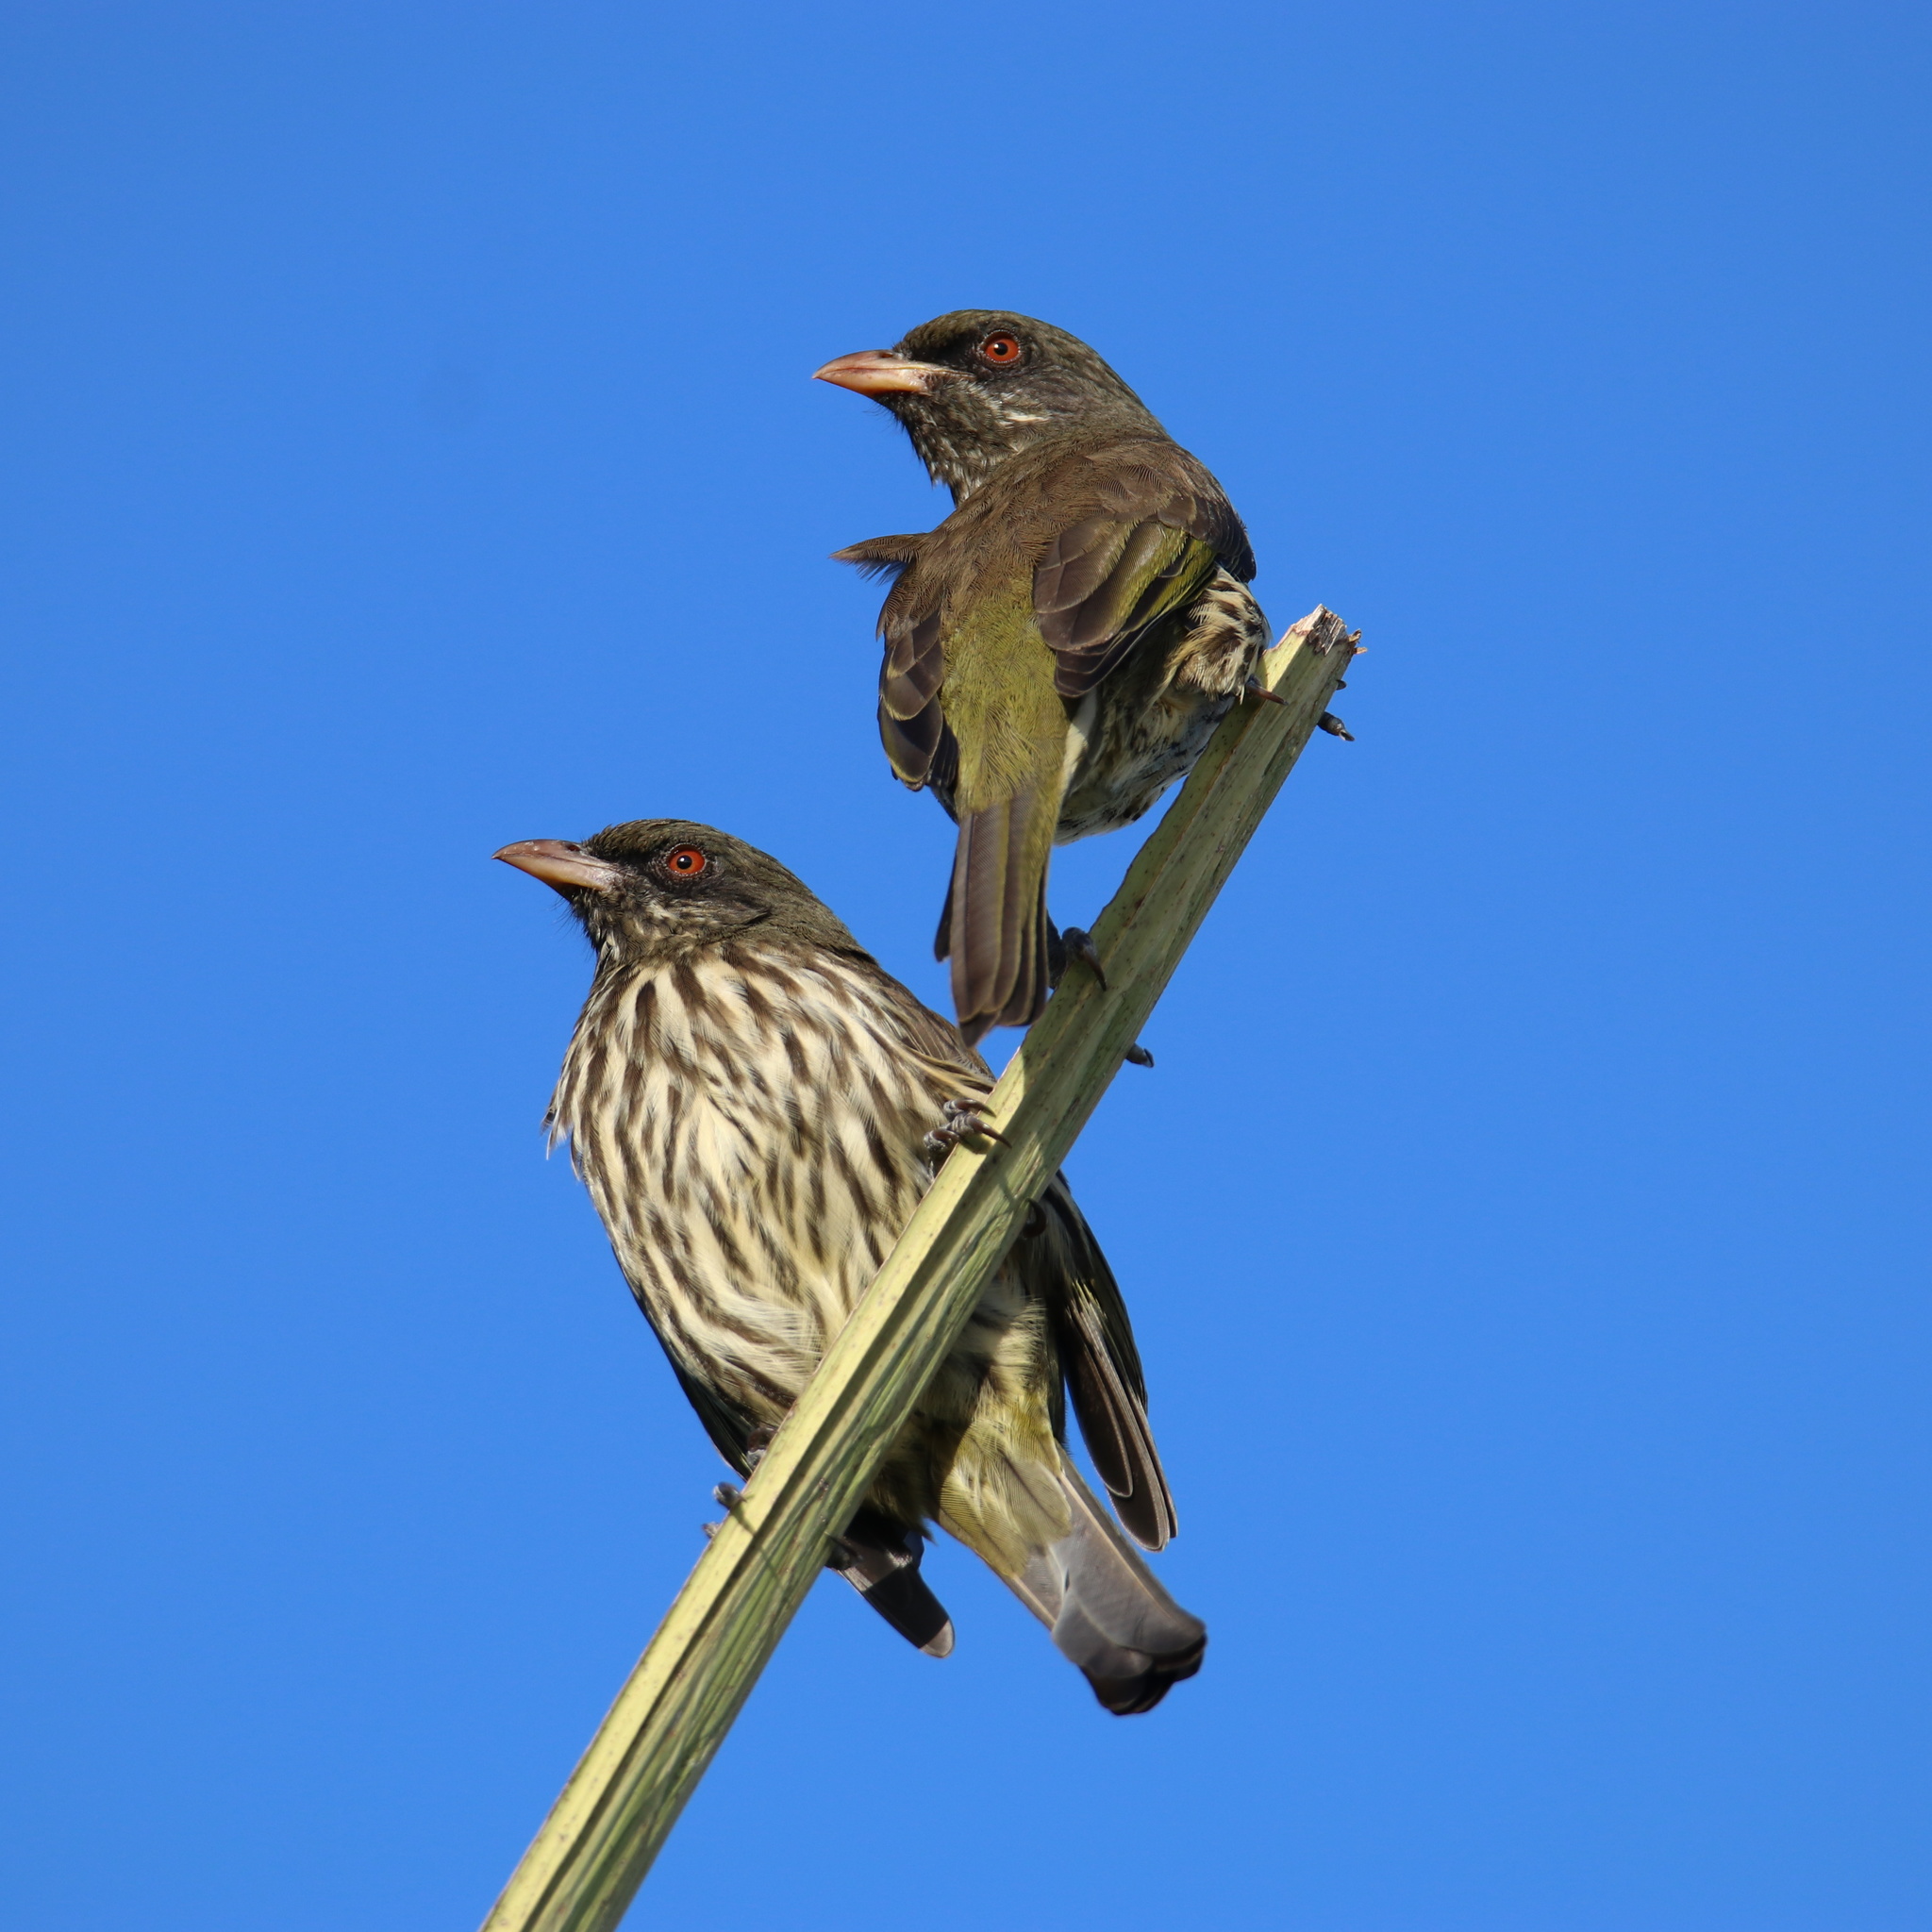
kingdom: Animalia
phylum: Chordata
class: Aves
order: Passeriformes
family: Dulidae
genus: Dulus
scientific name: Dulus dominicus
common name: Palmchat
